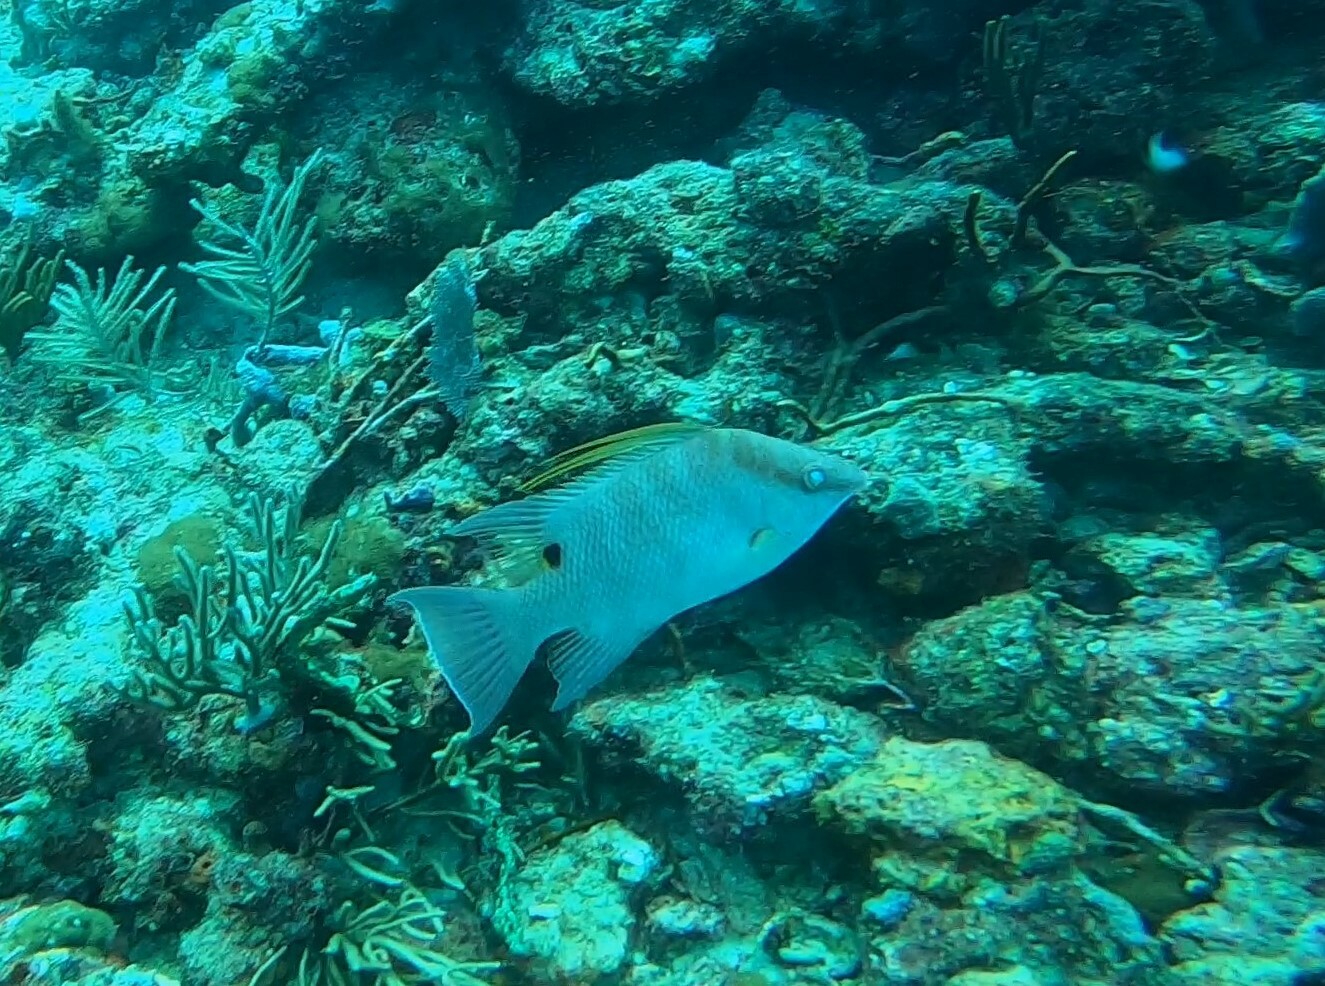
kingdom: Animalia
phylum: Chordata
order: Perciformes
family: Labridae
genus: Lachnolaimus
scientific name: Lachnolaimus maximus
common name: Hogfish
